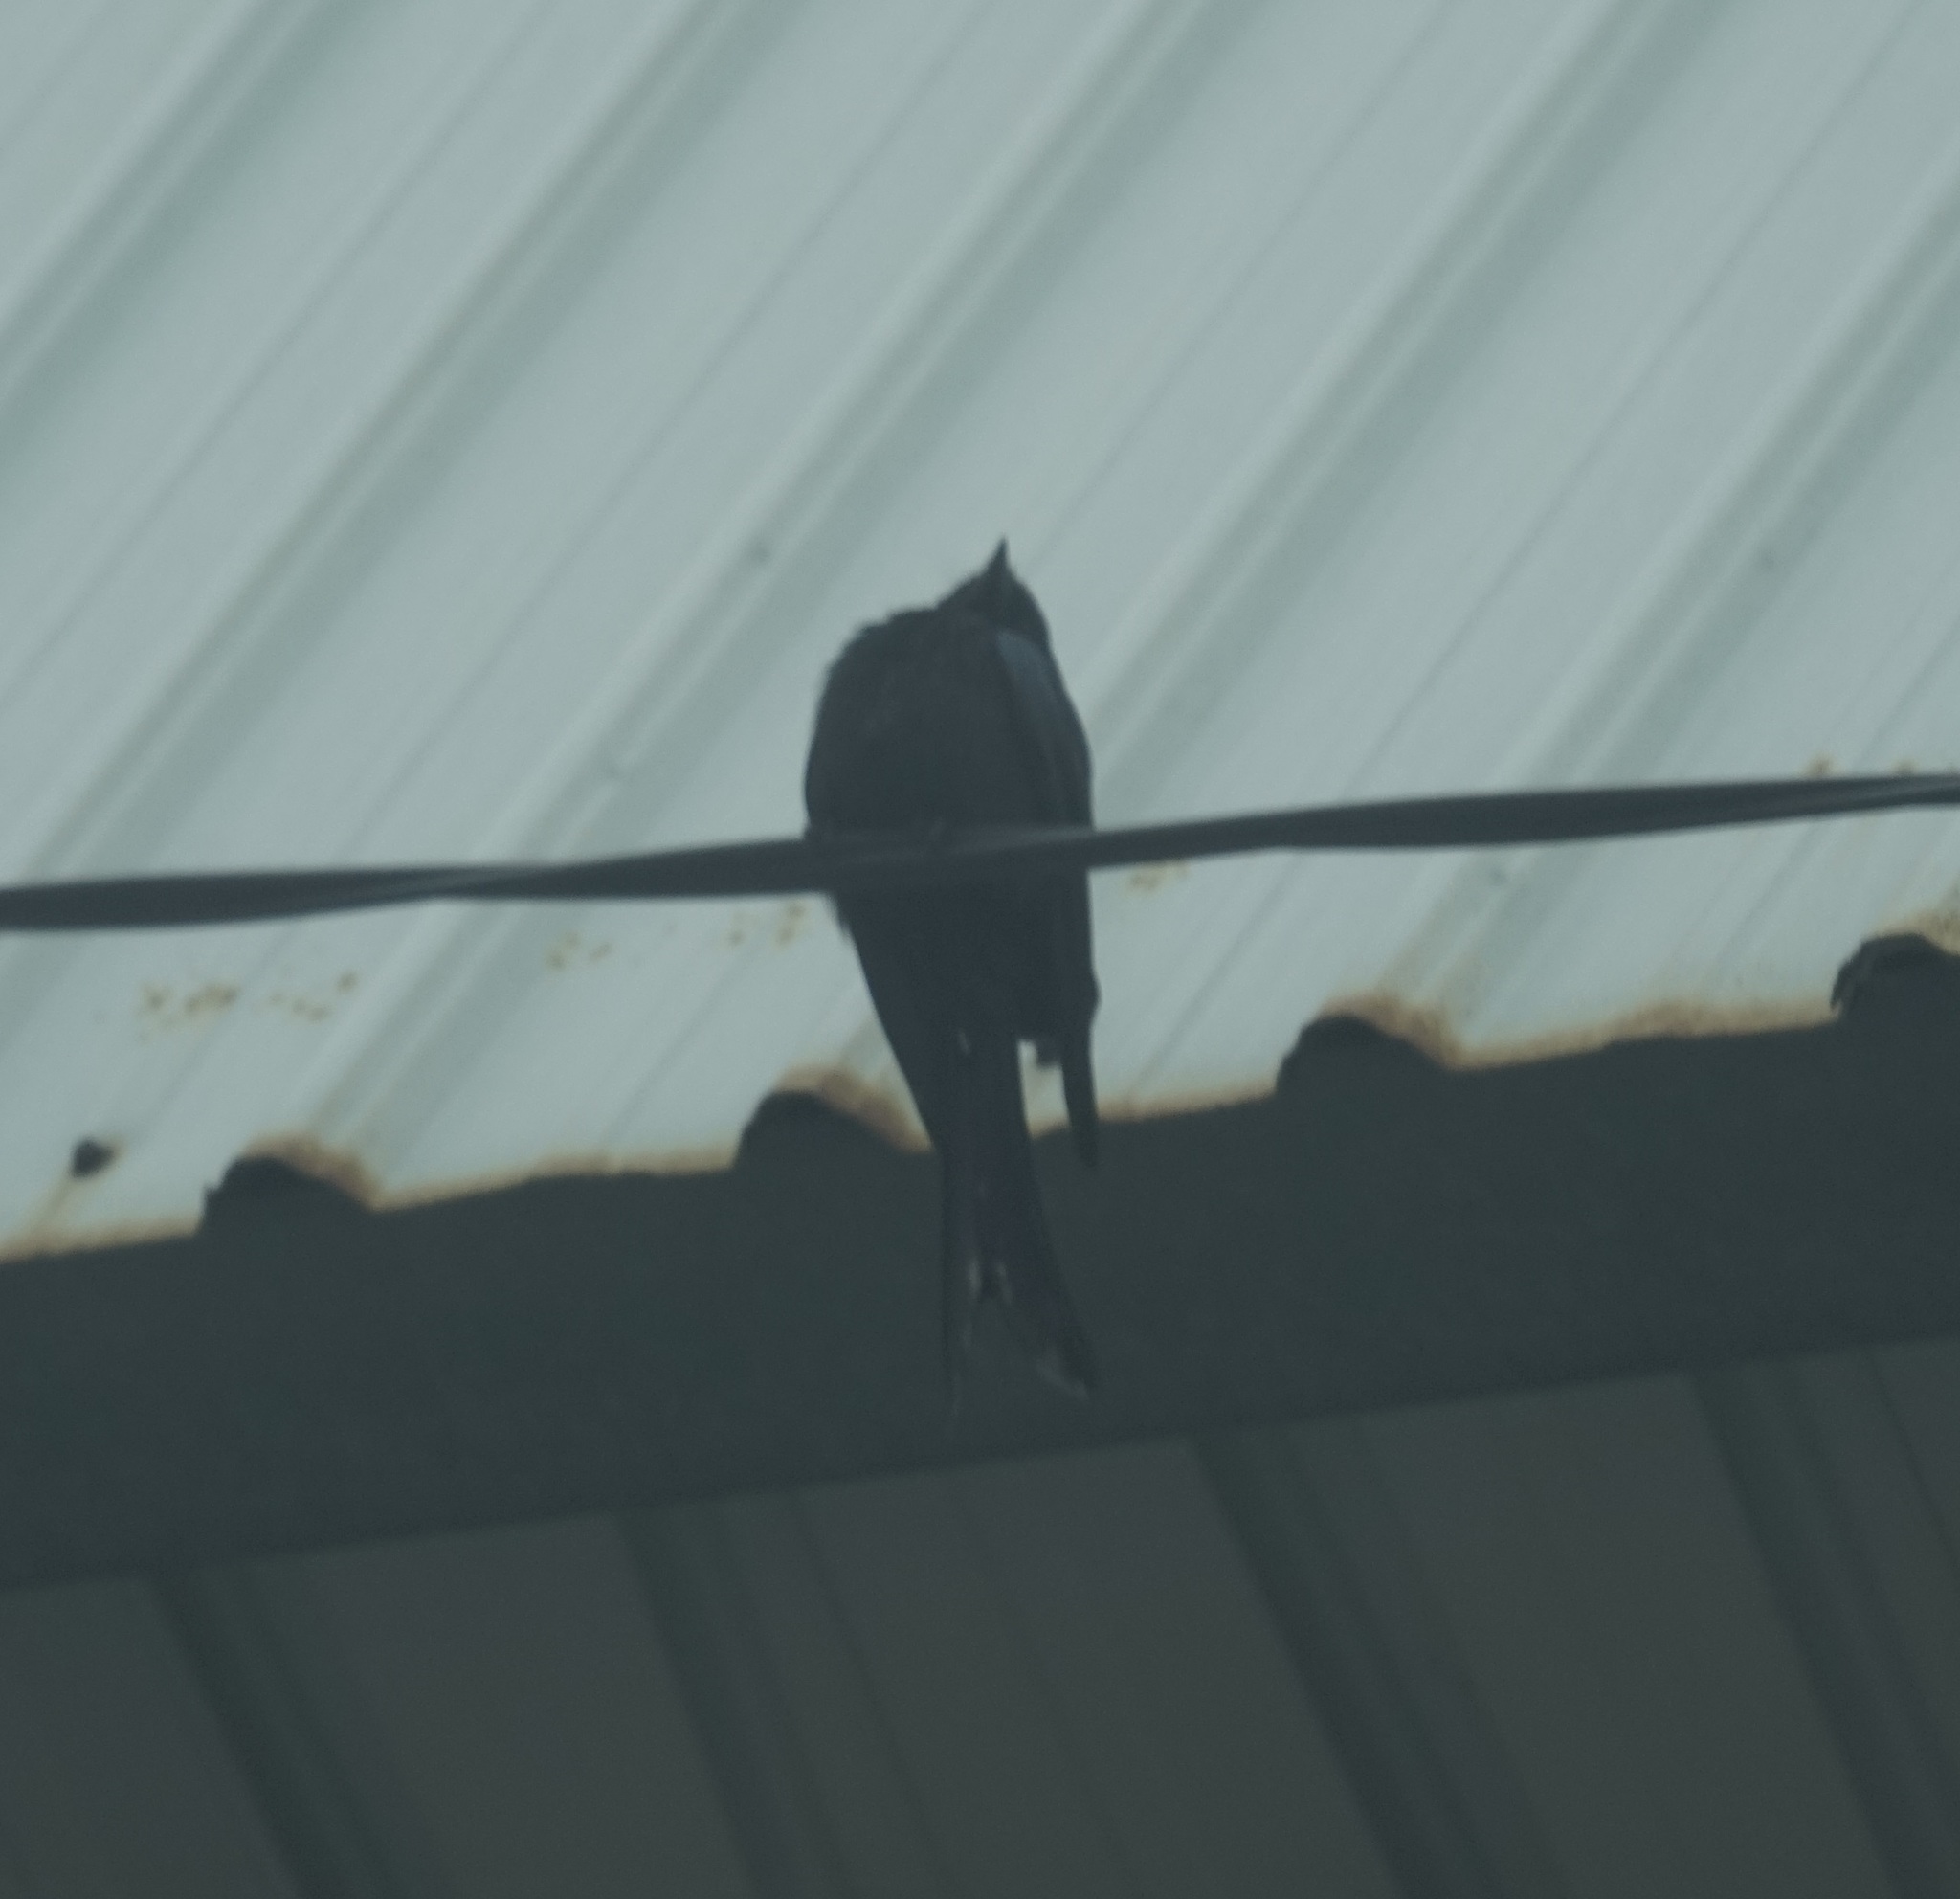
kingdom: Animalia
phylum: Chordata
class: Aves
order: Passeriformes
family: Dicruridae
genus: Dicrurus
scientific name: Dicrurus macrocercus
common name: Black drongo
